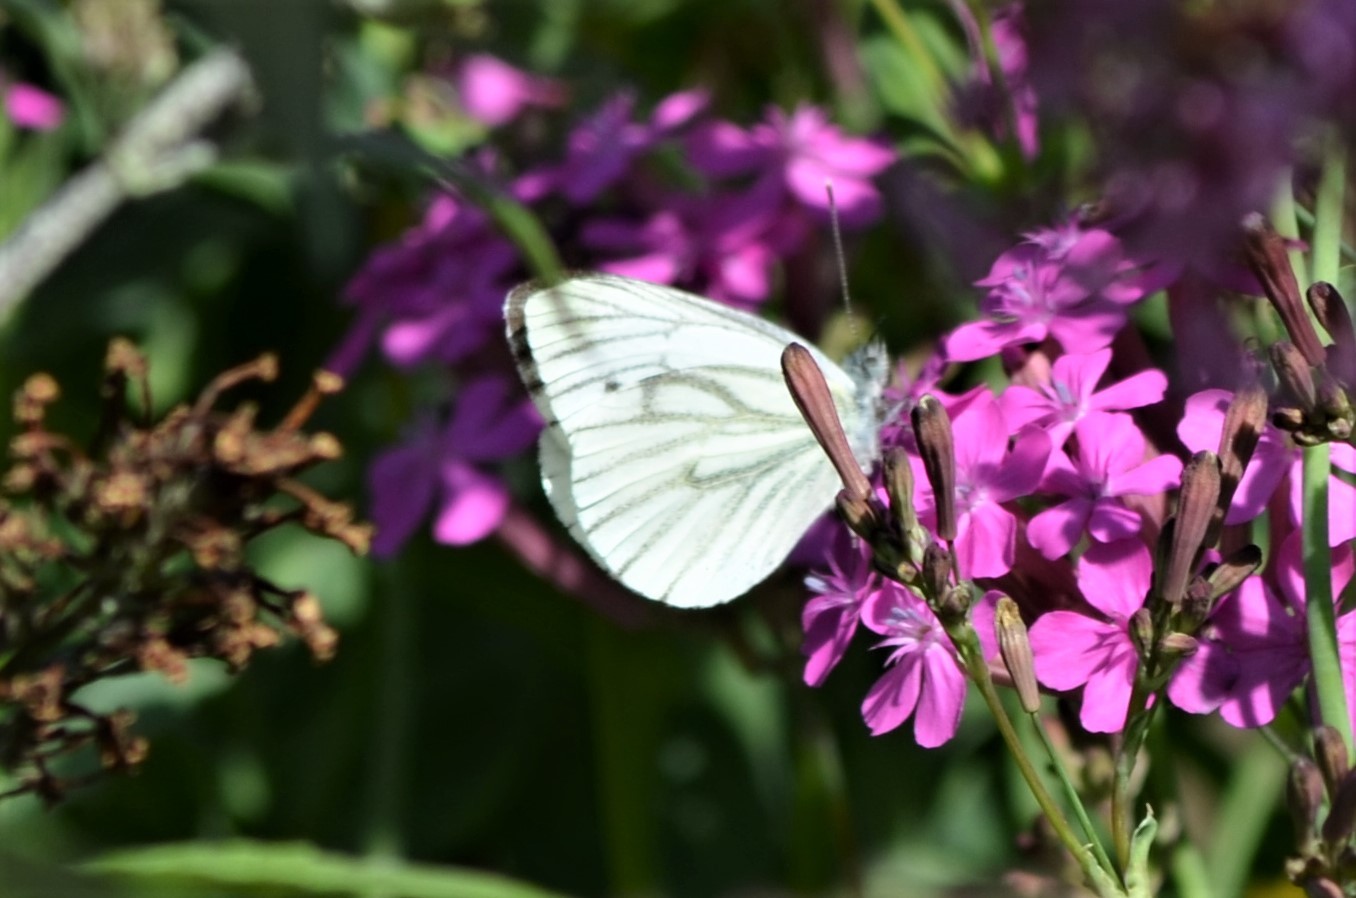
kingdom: Animalia
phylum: Arthropoda
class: Insecta
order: Lepidoptera
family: Pieridae
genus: Pieris
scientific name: Pieris napi
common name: Green-veined white
